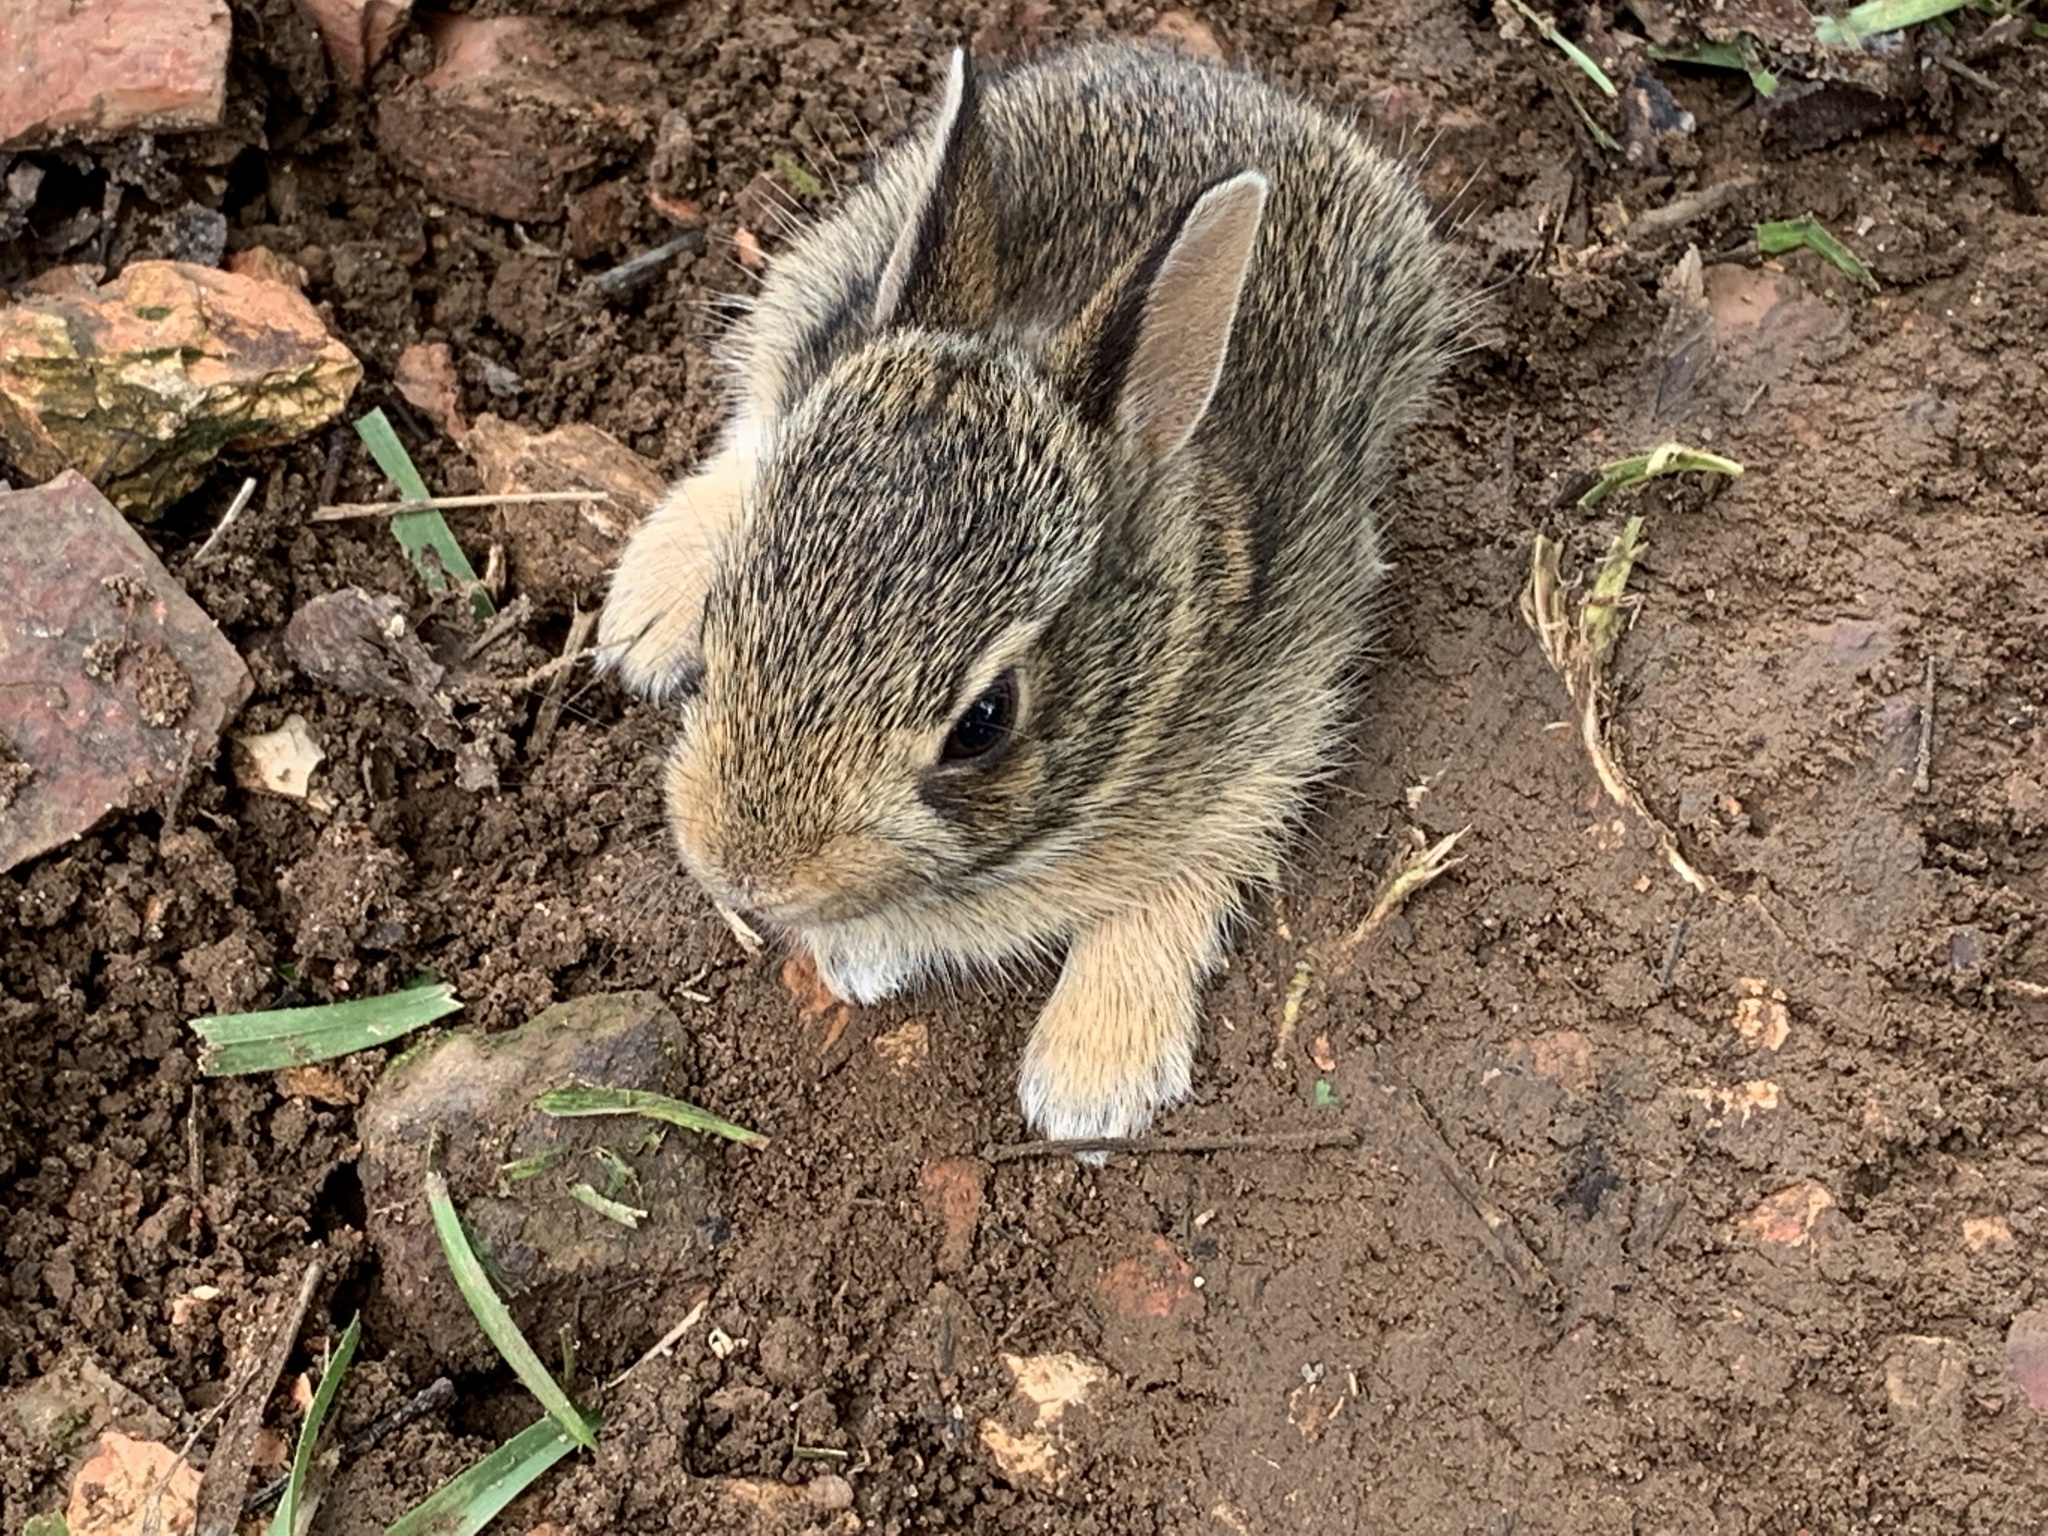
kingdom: Animalia
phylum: Chordata
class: Mammalia
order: Lagomorpha
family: Leporidae
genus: Sylvilagus
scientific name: Sylvilagus floridanus
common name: Eastern cottontail
